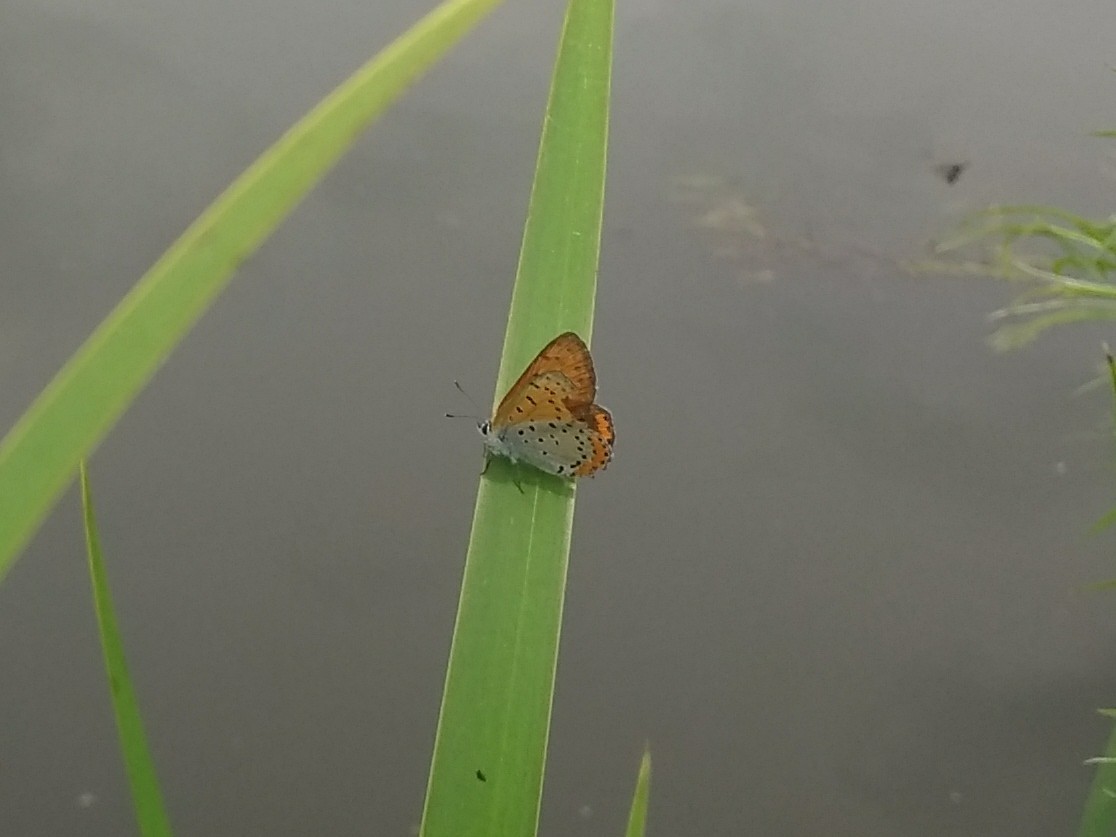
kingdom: Animalia
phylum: Arthropoda
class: Insecta
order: Lepidoptera
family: Lycaenidae
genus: Tharsalea
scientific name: Tharsalea hyllus
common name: Bronze copper
